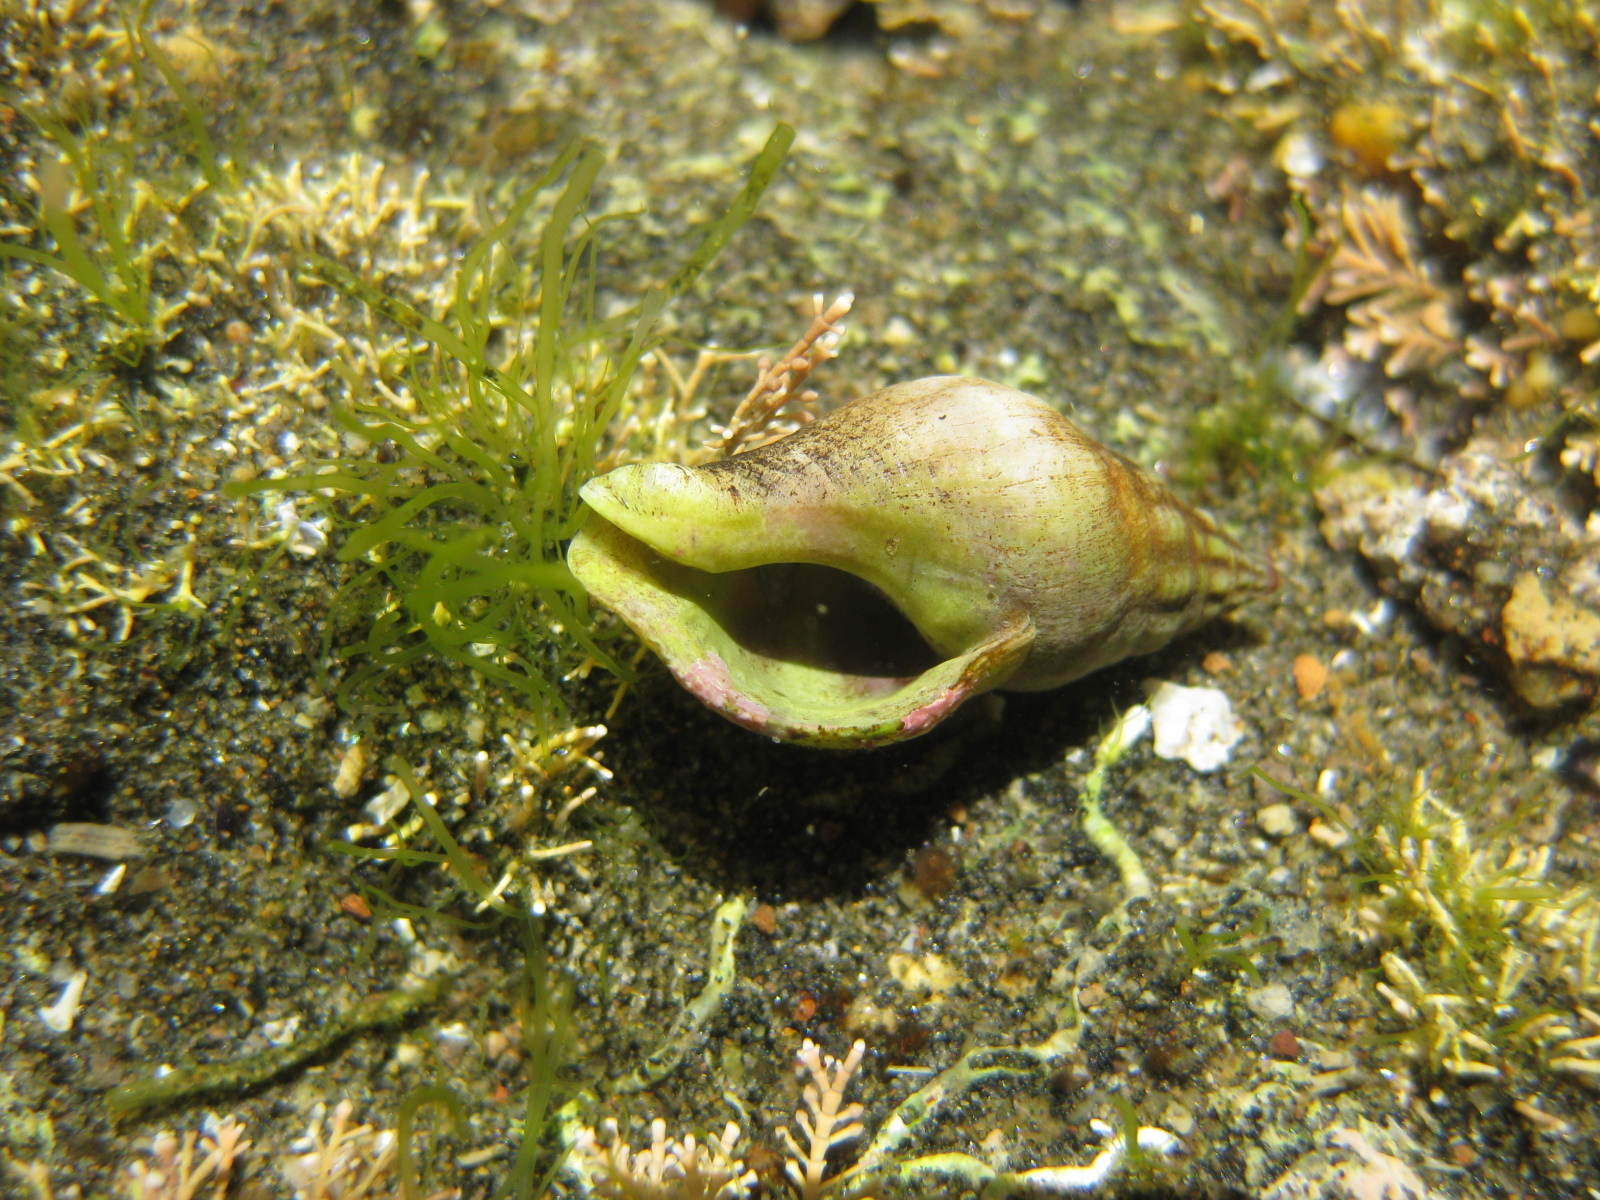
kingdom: Animalia
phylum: Mollusca
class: Gastropoda
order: Neogastropoda
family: Tudiclidae
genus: Buccinulum
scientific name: Buccinulum vittatum
